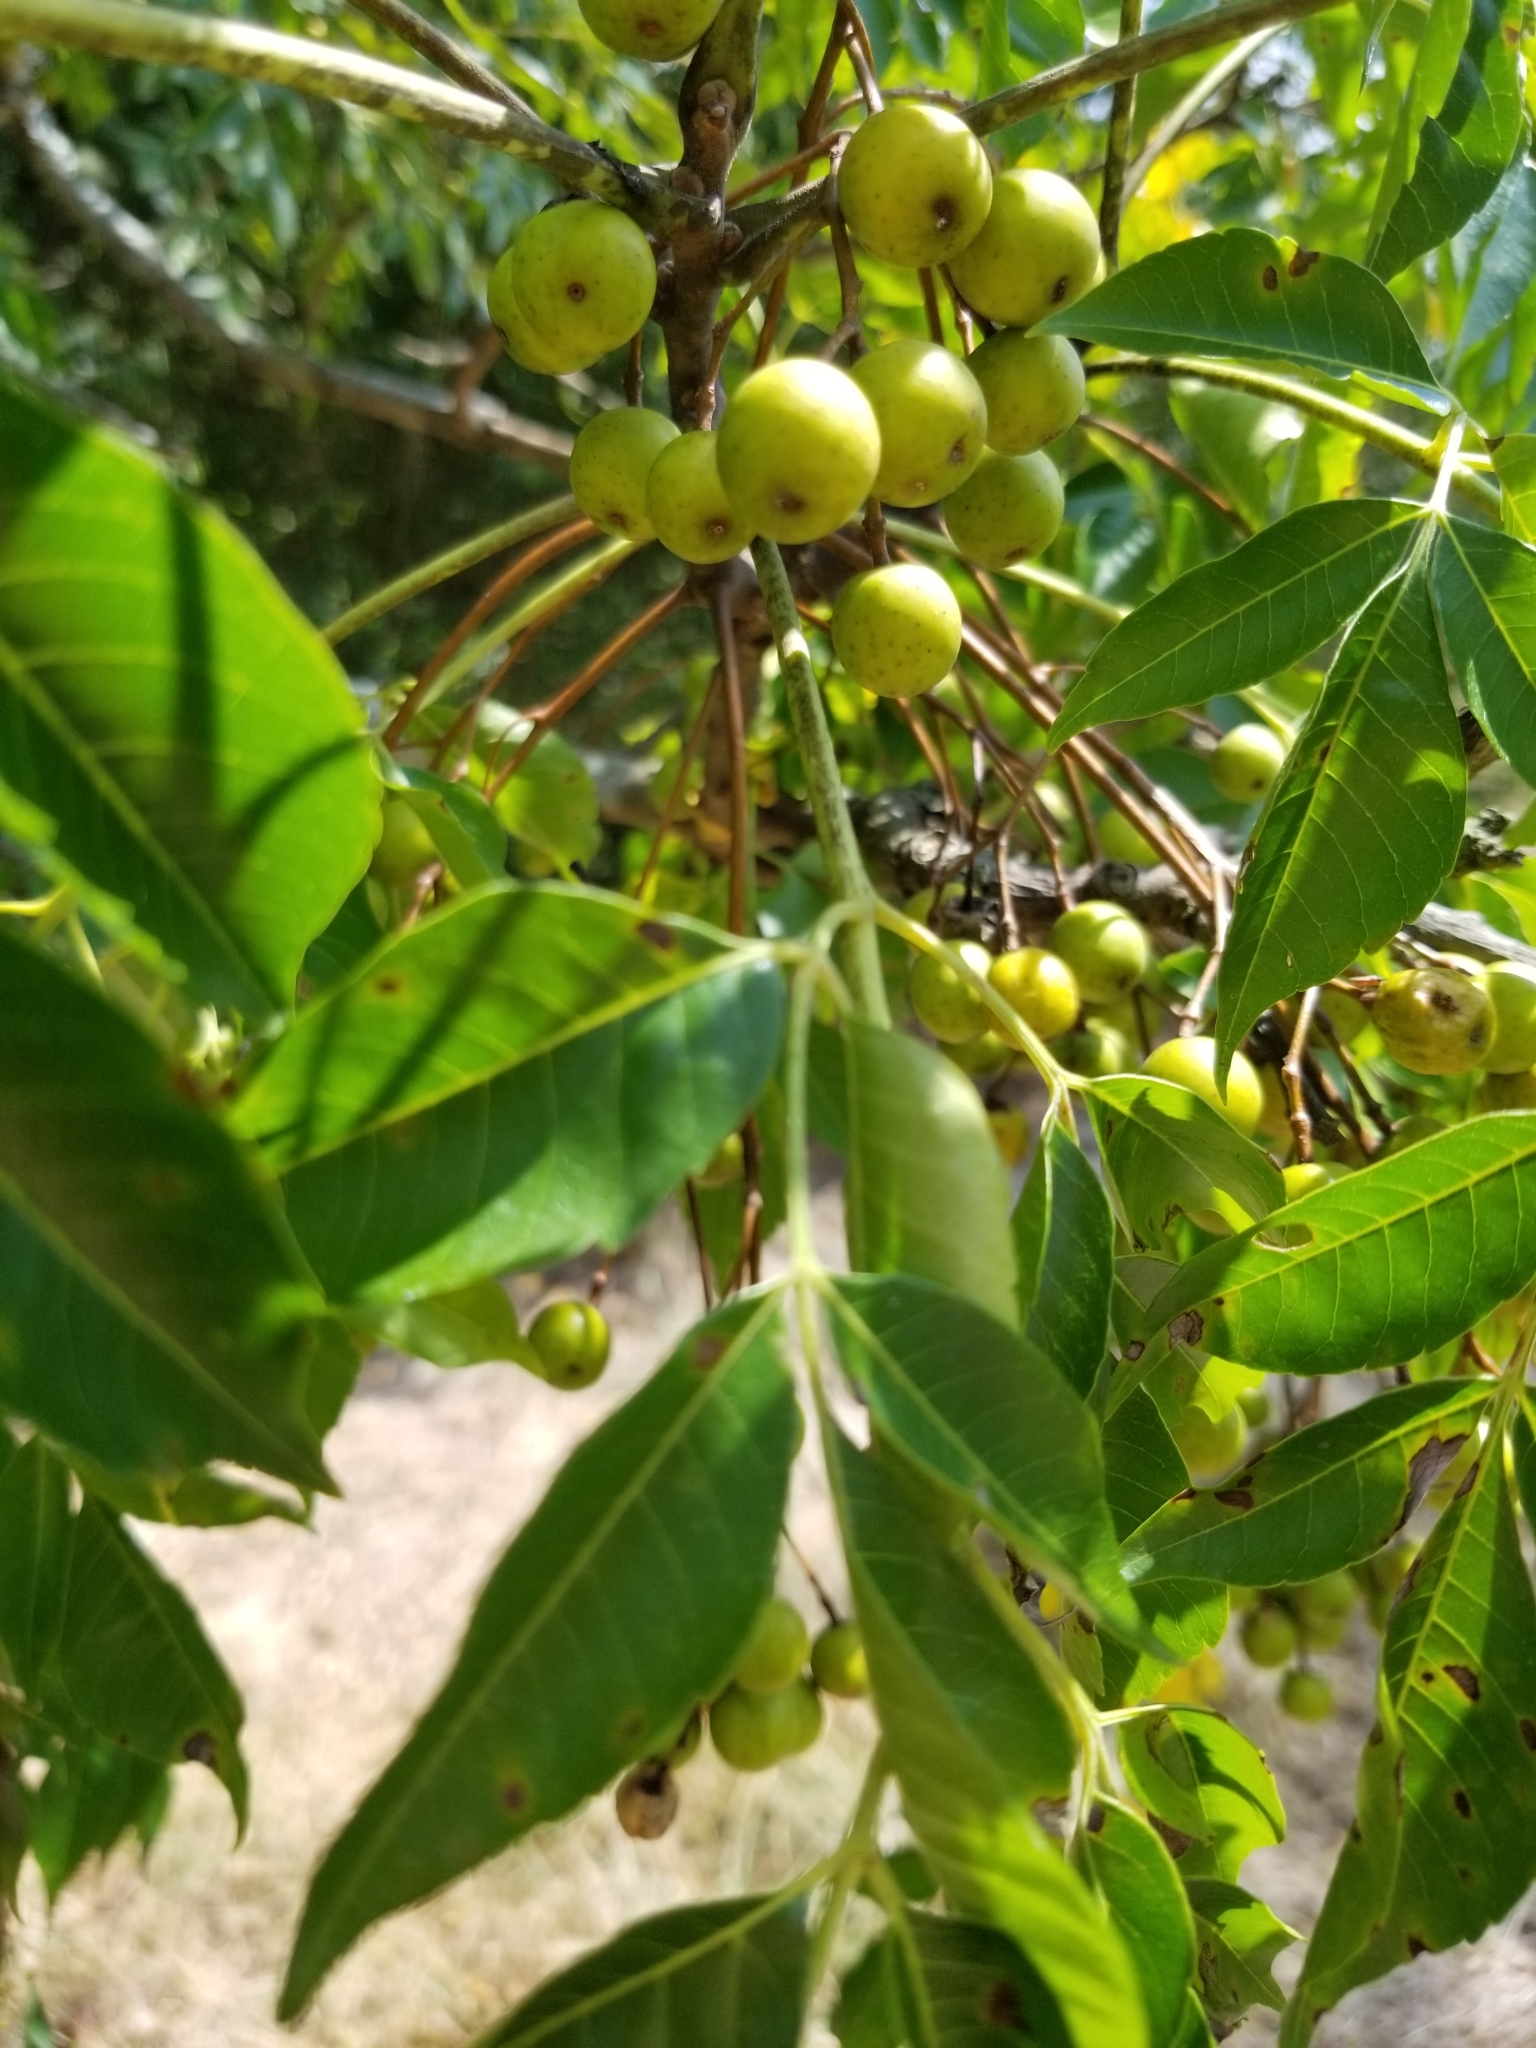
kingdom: Plantae
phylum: Tracheophyta
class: Magnoliopsida
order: Sapindales
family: Meliaceae
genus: Melia
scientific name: Melia azedarach
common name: Chinaberrytree
